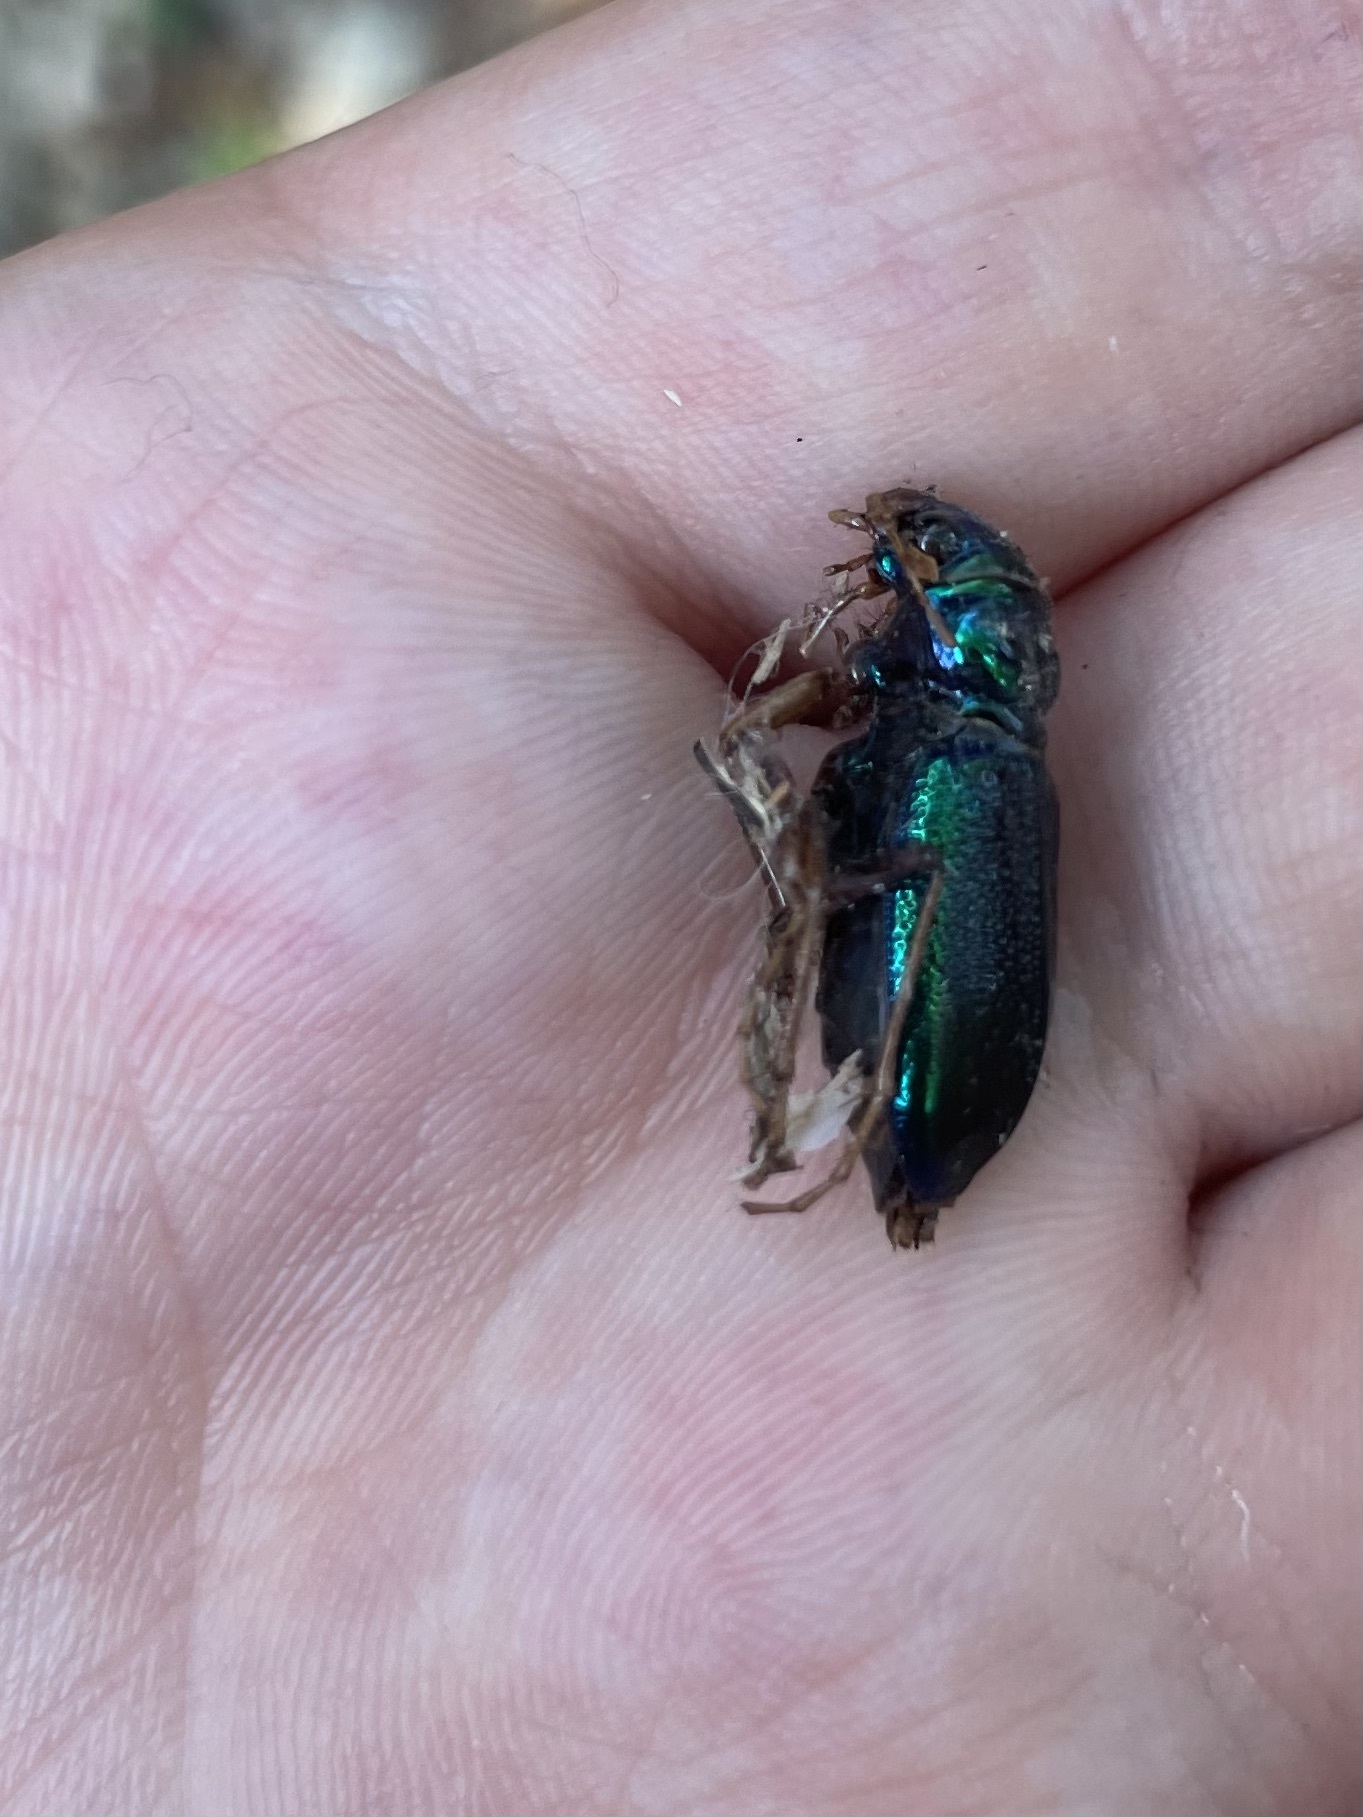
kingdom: Animalia
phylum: Arthropoda
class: Insecta
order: Coleoptera
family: Carabidae
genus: Tetracha
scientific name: Tetracha virginica
